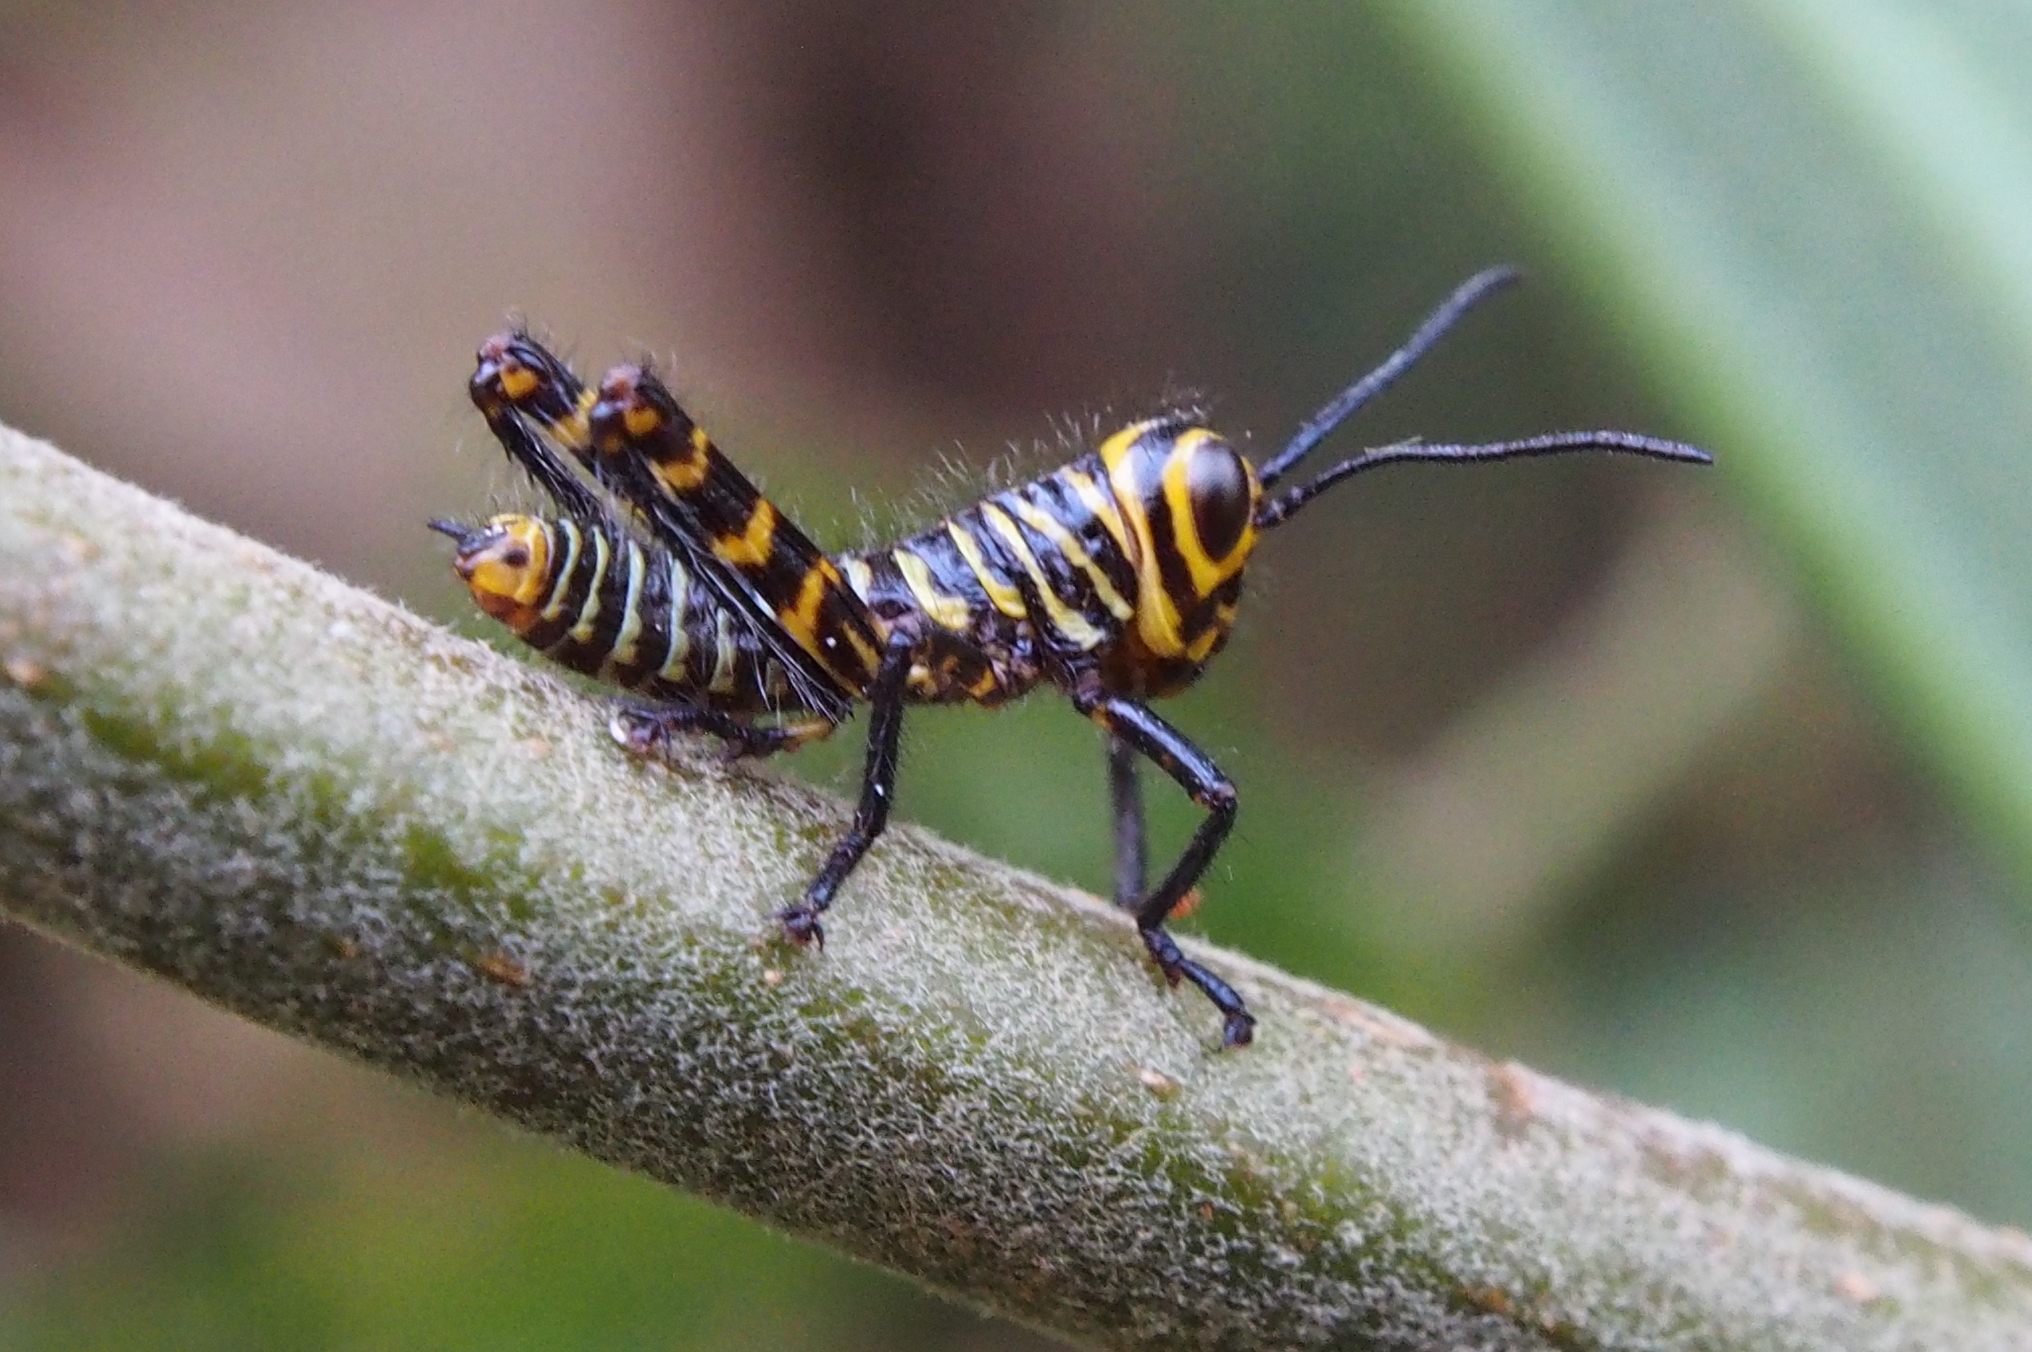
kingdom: Animalia
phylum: Arthropoda
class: Insecta
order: Orthoptera
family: Romaleidae
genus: Tropidacris
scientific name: Tropidacris cristata
